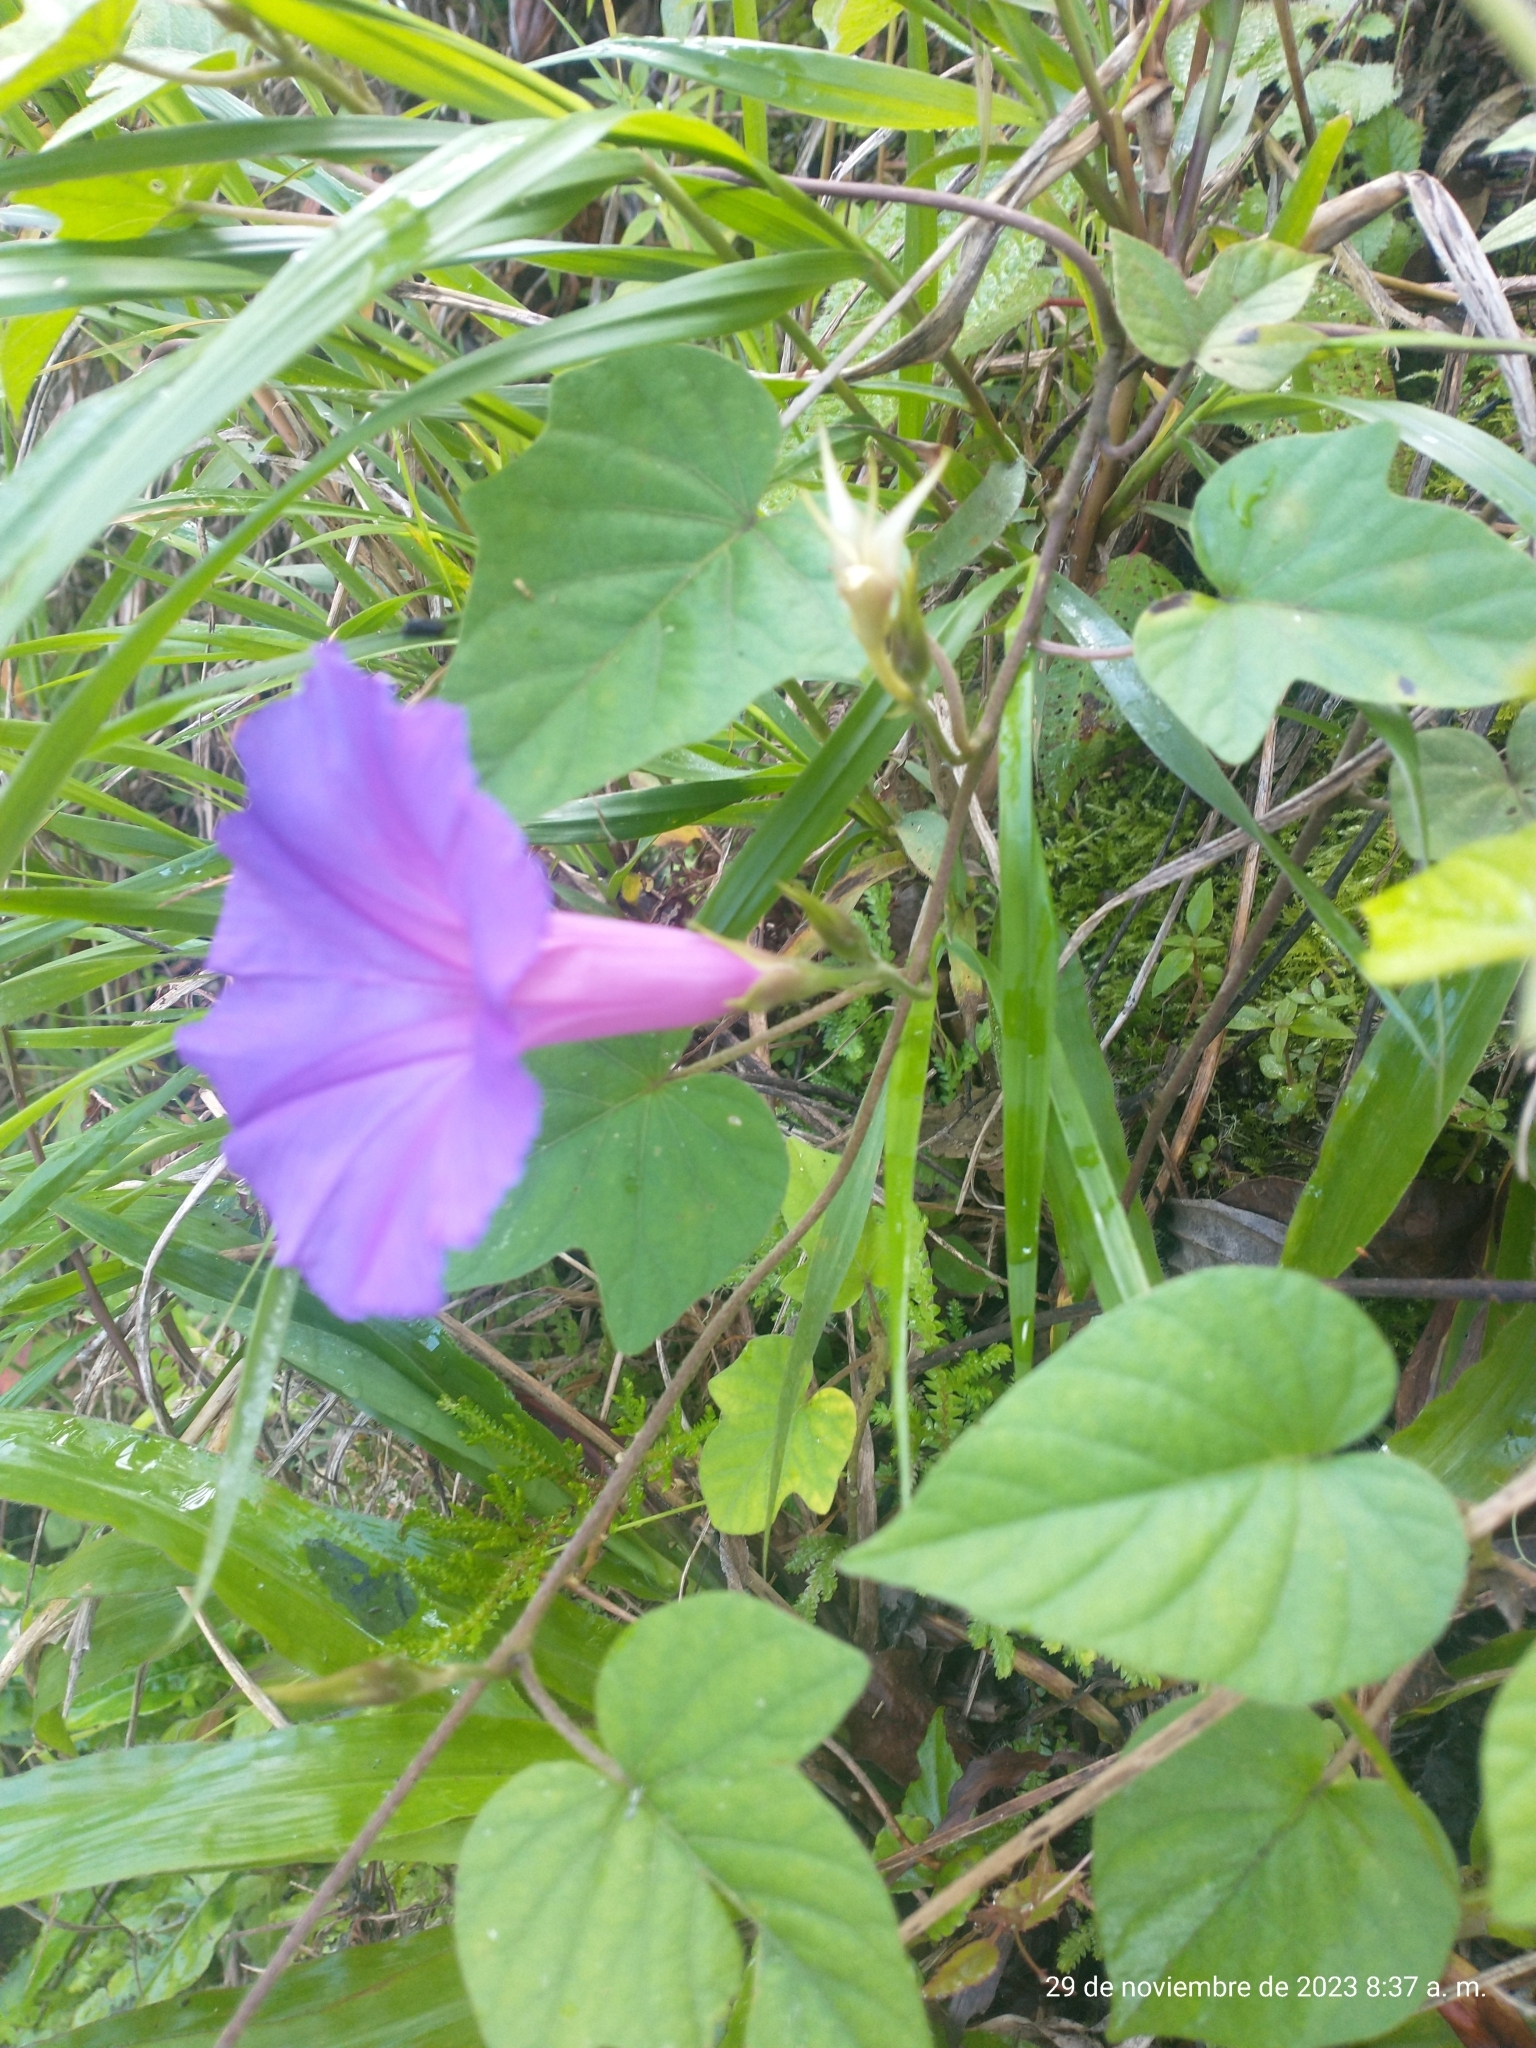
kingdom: Plantae
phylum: Tracheophyta
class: Magnoliopsida
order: Solanales
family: Convolvulaceae
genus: Ipomoea
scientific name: Ipomoea indica
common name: Blue dawnflower
